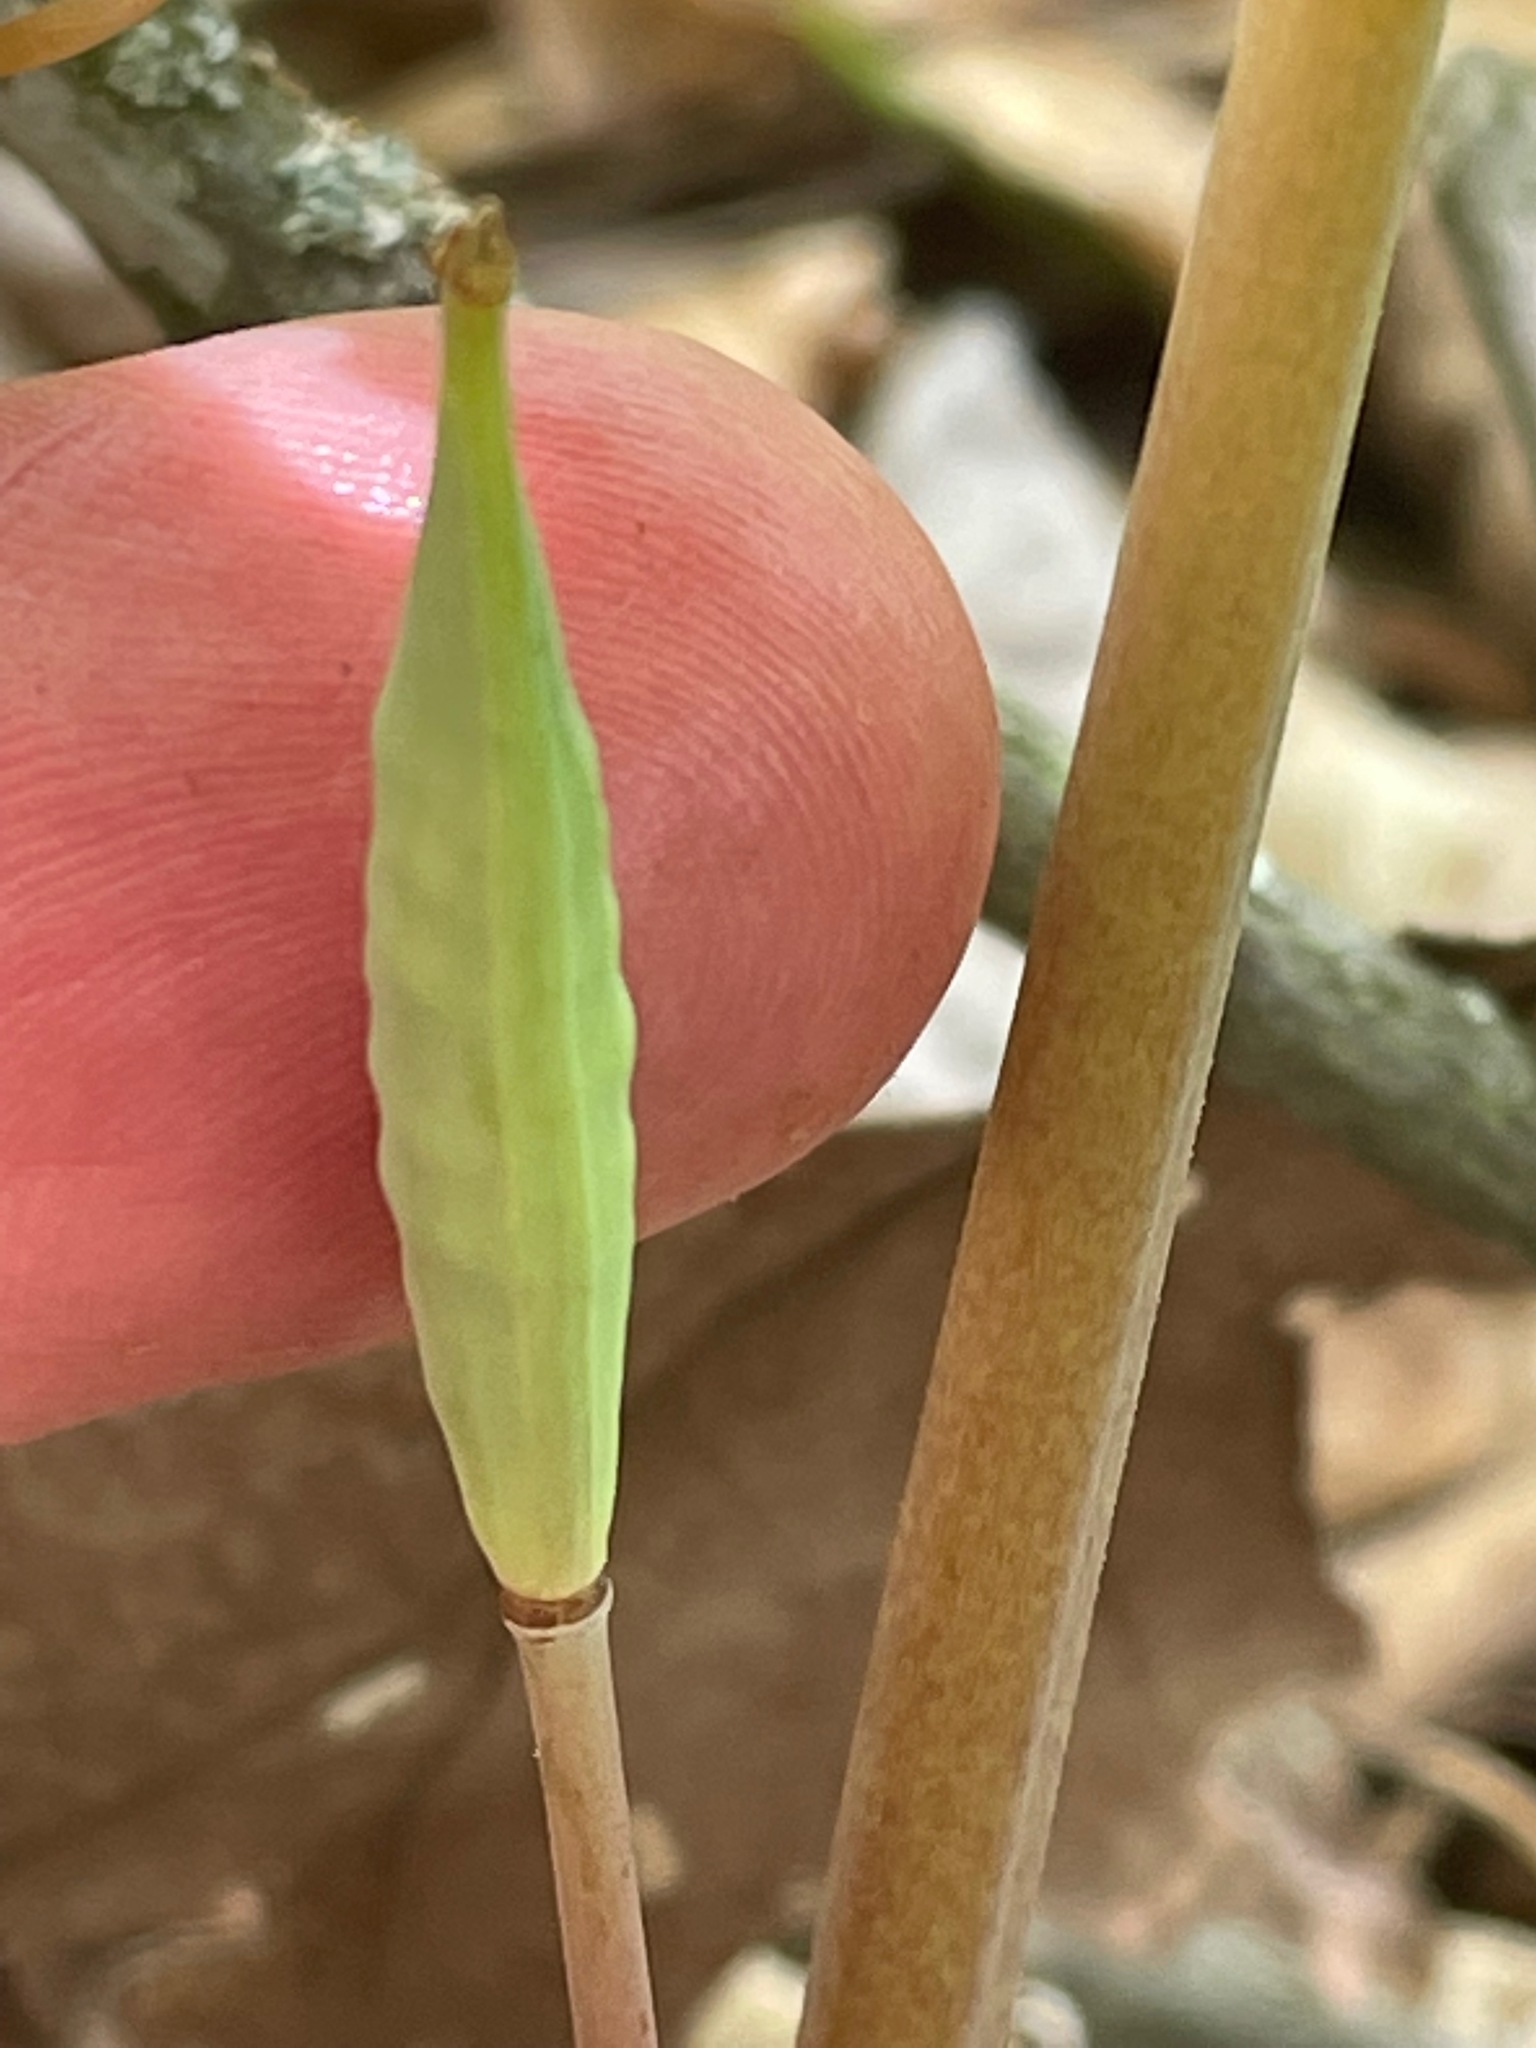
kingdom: Plantae
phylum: Tracheophyta
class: Magnoliopsida
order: Ranunculales
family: Papaveraceae
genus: Sanguinaria
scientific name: Sanguinaria canadensis
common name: Bloodroot
